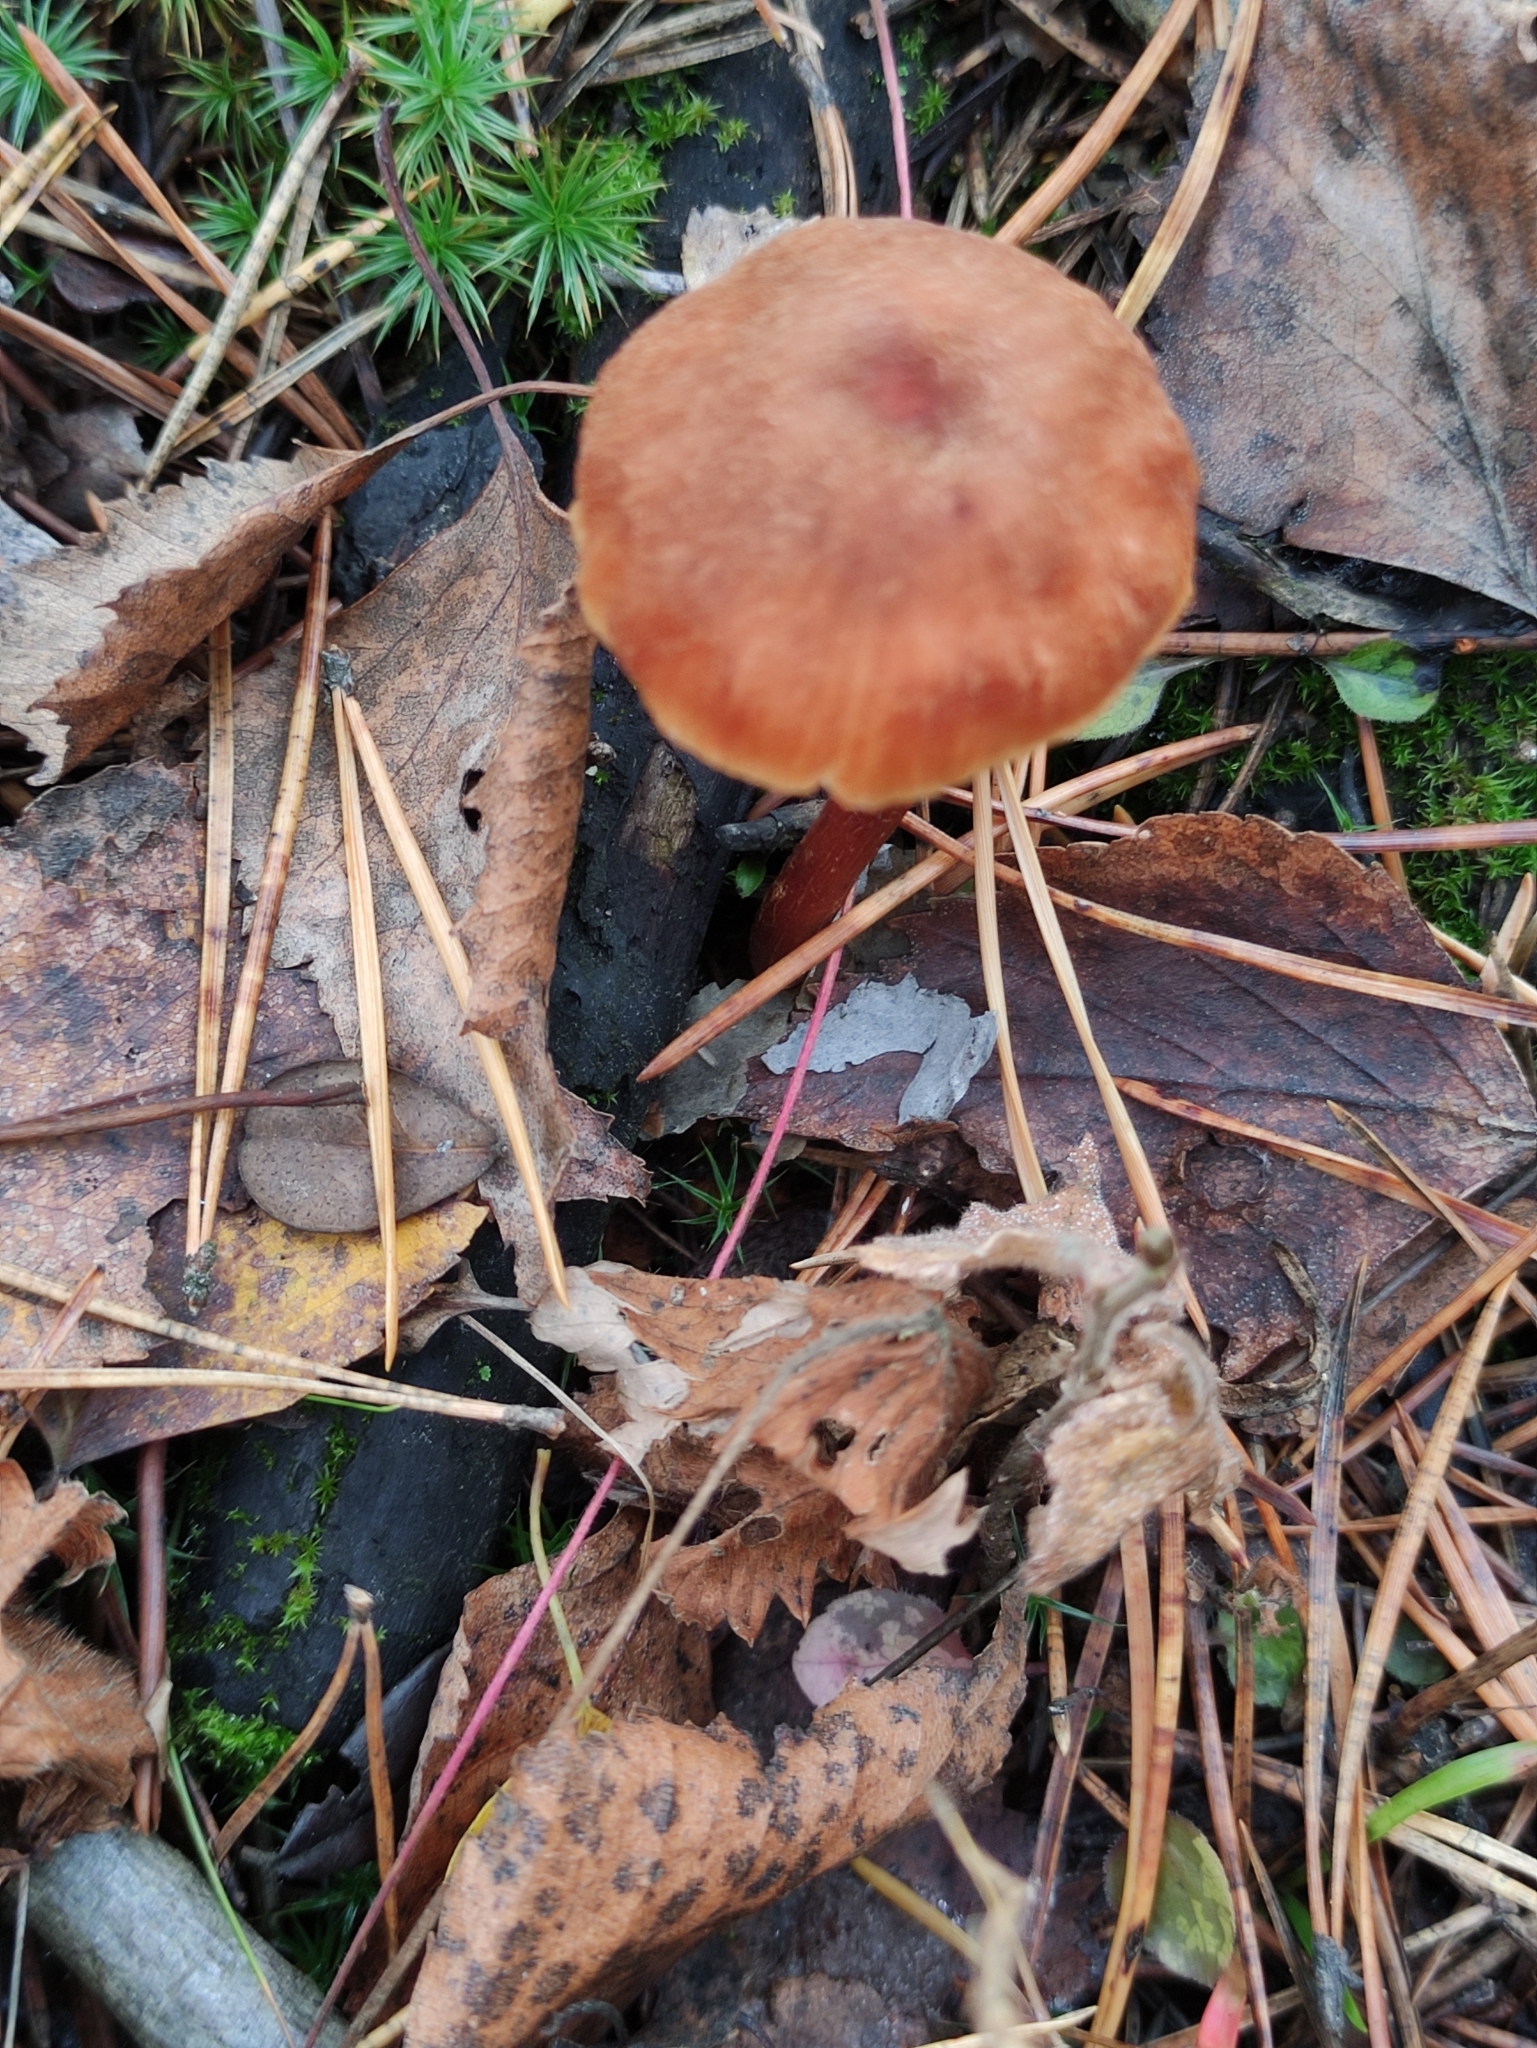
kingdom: Fungi
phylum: Basidiomycota
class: Agaricomycetes
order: Agaricales
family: Hydnangiaceae
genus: Laccaria
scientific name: Laccaria proxima
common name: Scurfy deceiver
